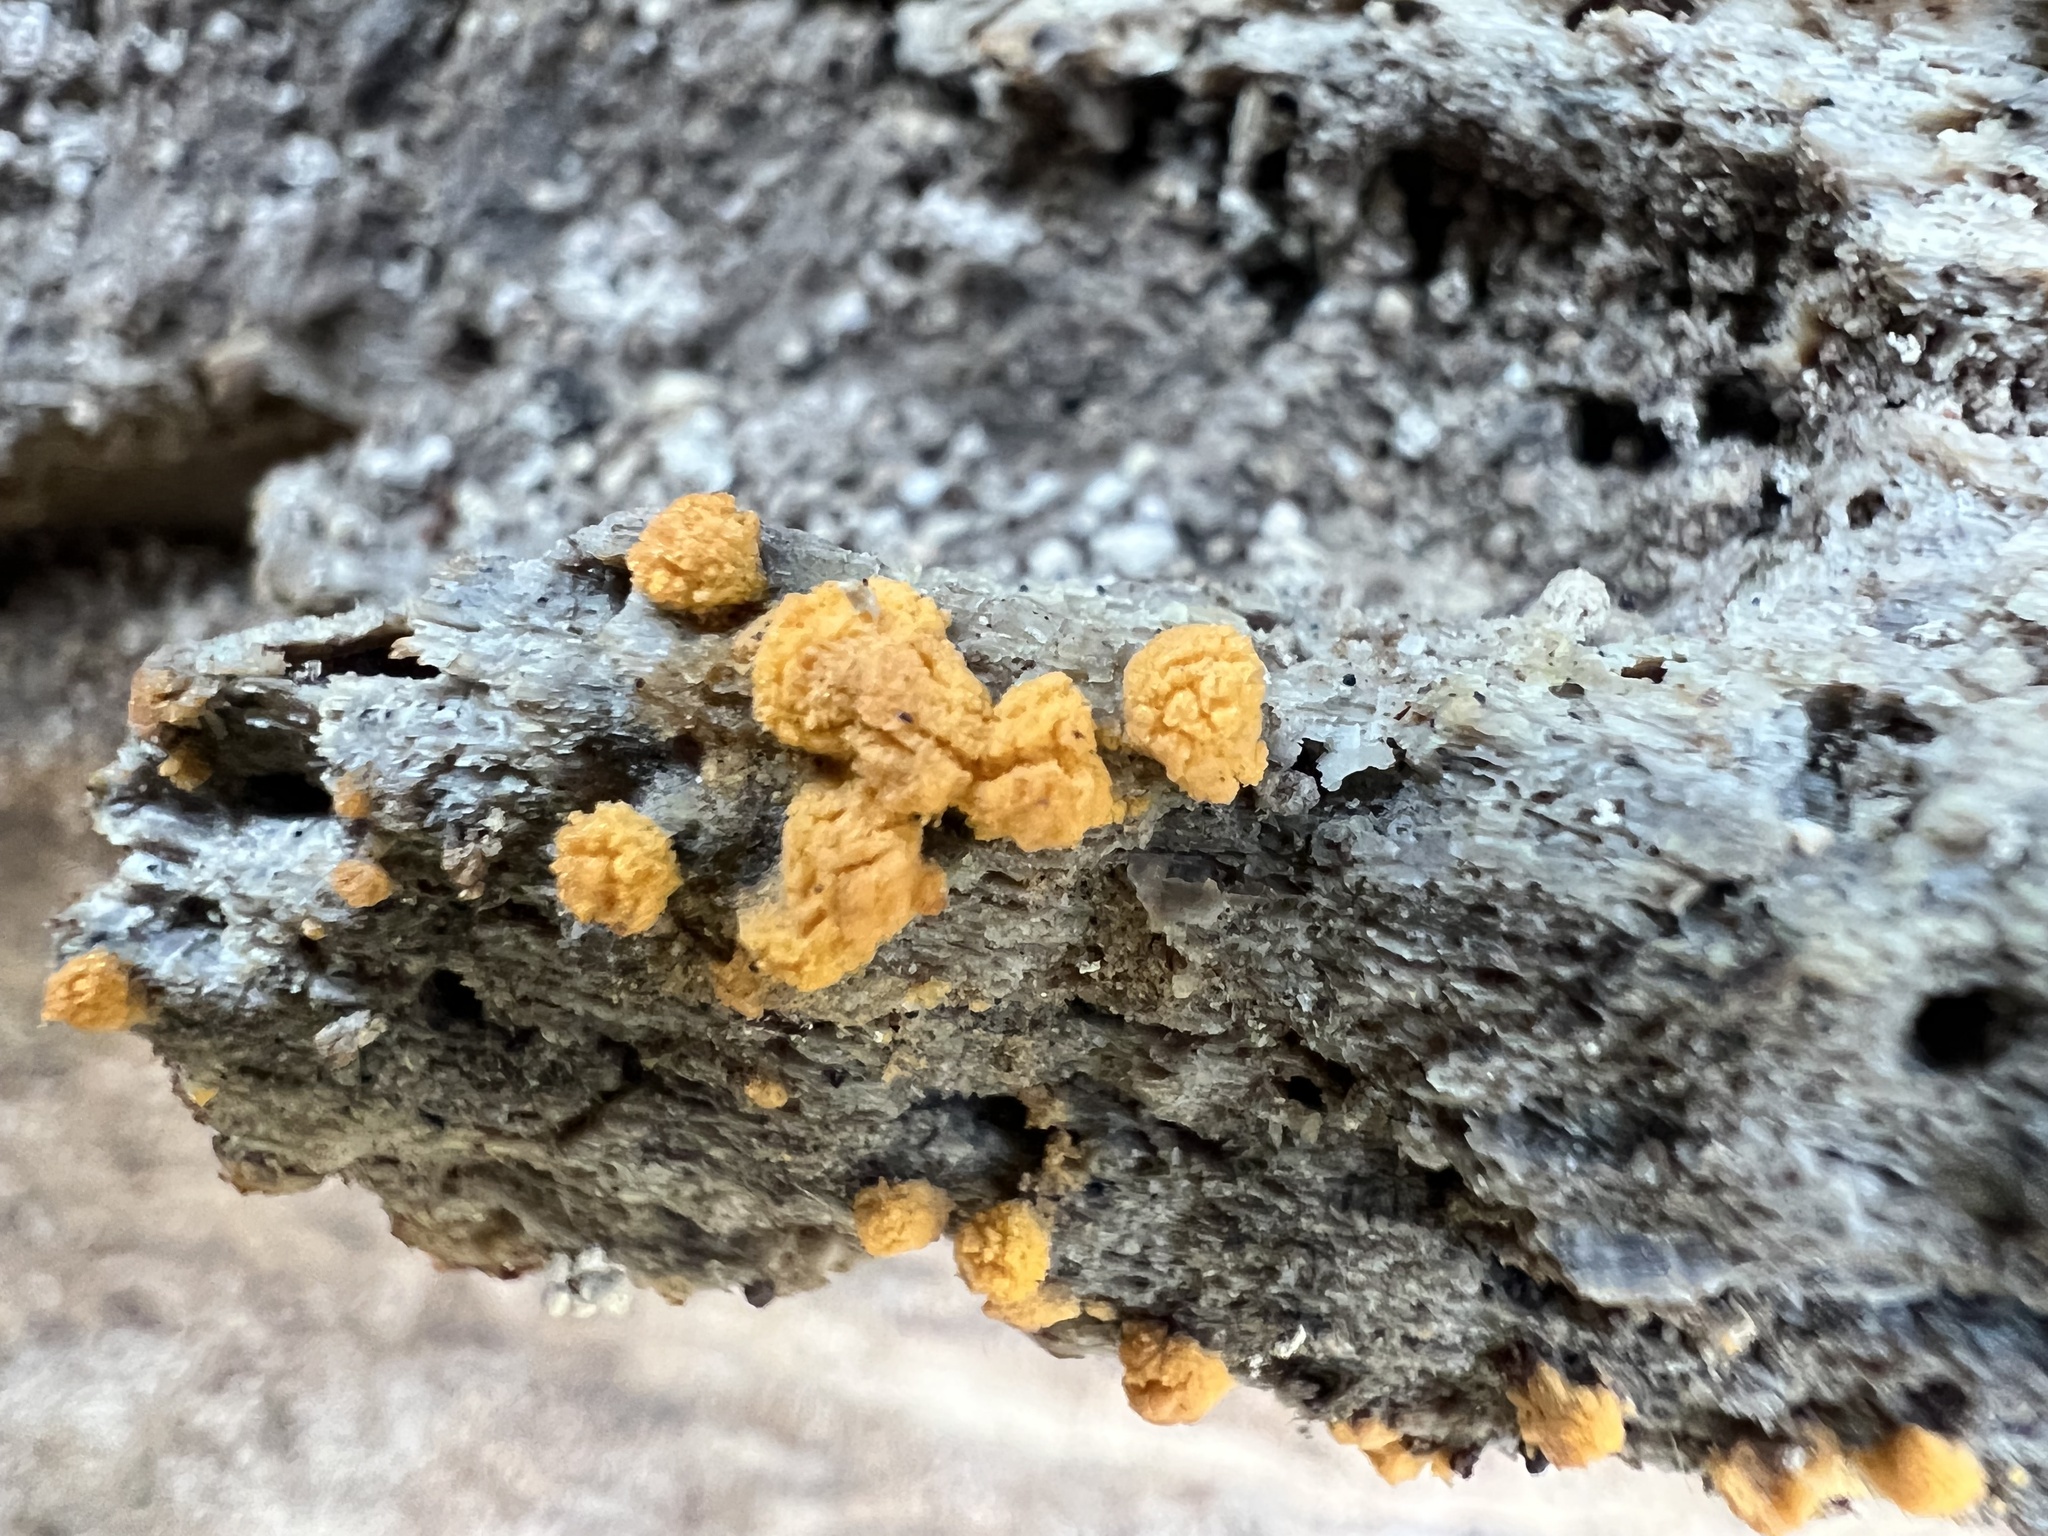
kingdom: Fungi
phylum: Ascomycota
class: Pezizomycetes
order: Pezizales
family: Pyronemataceae
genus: Sphaerosporium
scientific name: Sphaerosporium lignatile
